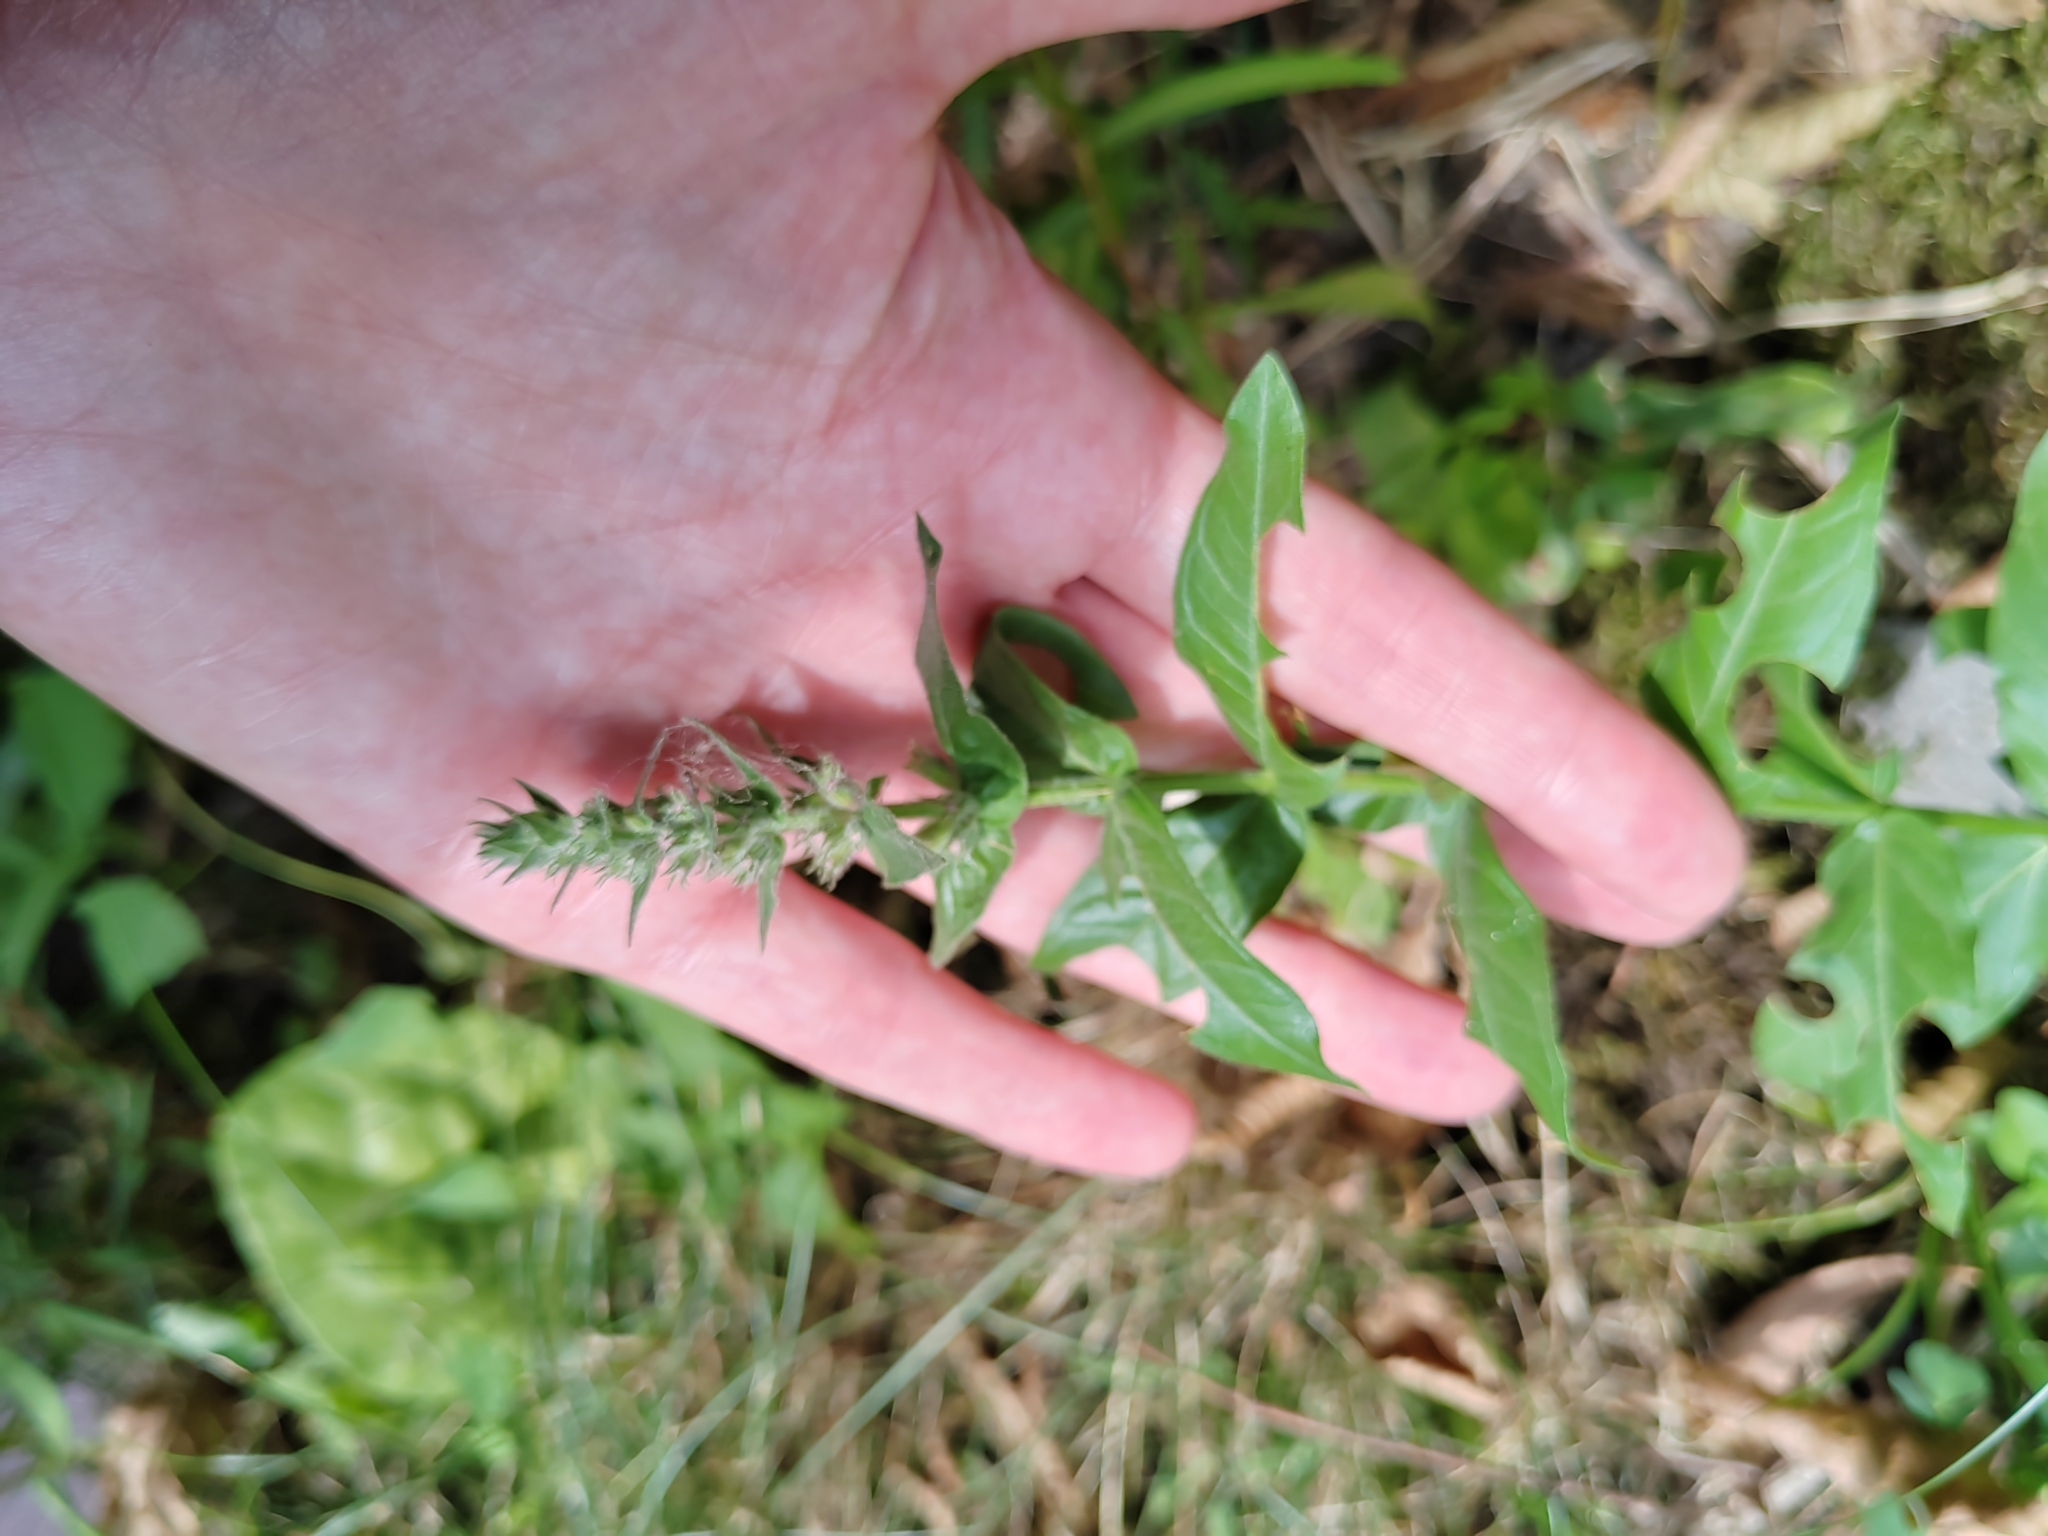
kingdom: Plantae
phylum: Tracheophyta
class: Magnoliopsida
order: Myrtales
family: Lythraceae
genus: Lythrum
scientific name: Lythrum salicaria
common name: Purple loosestrife
